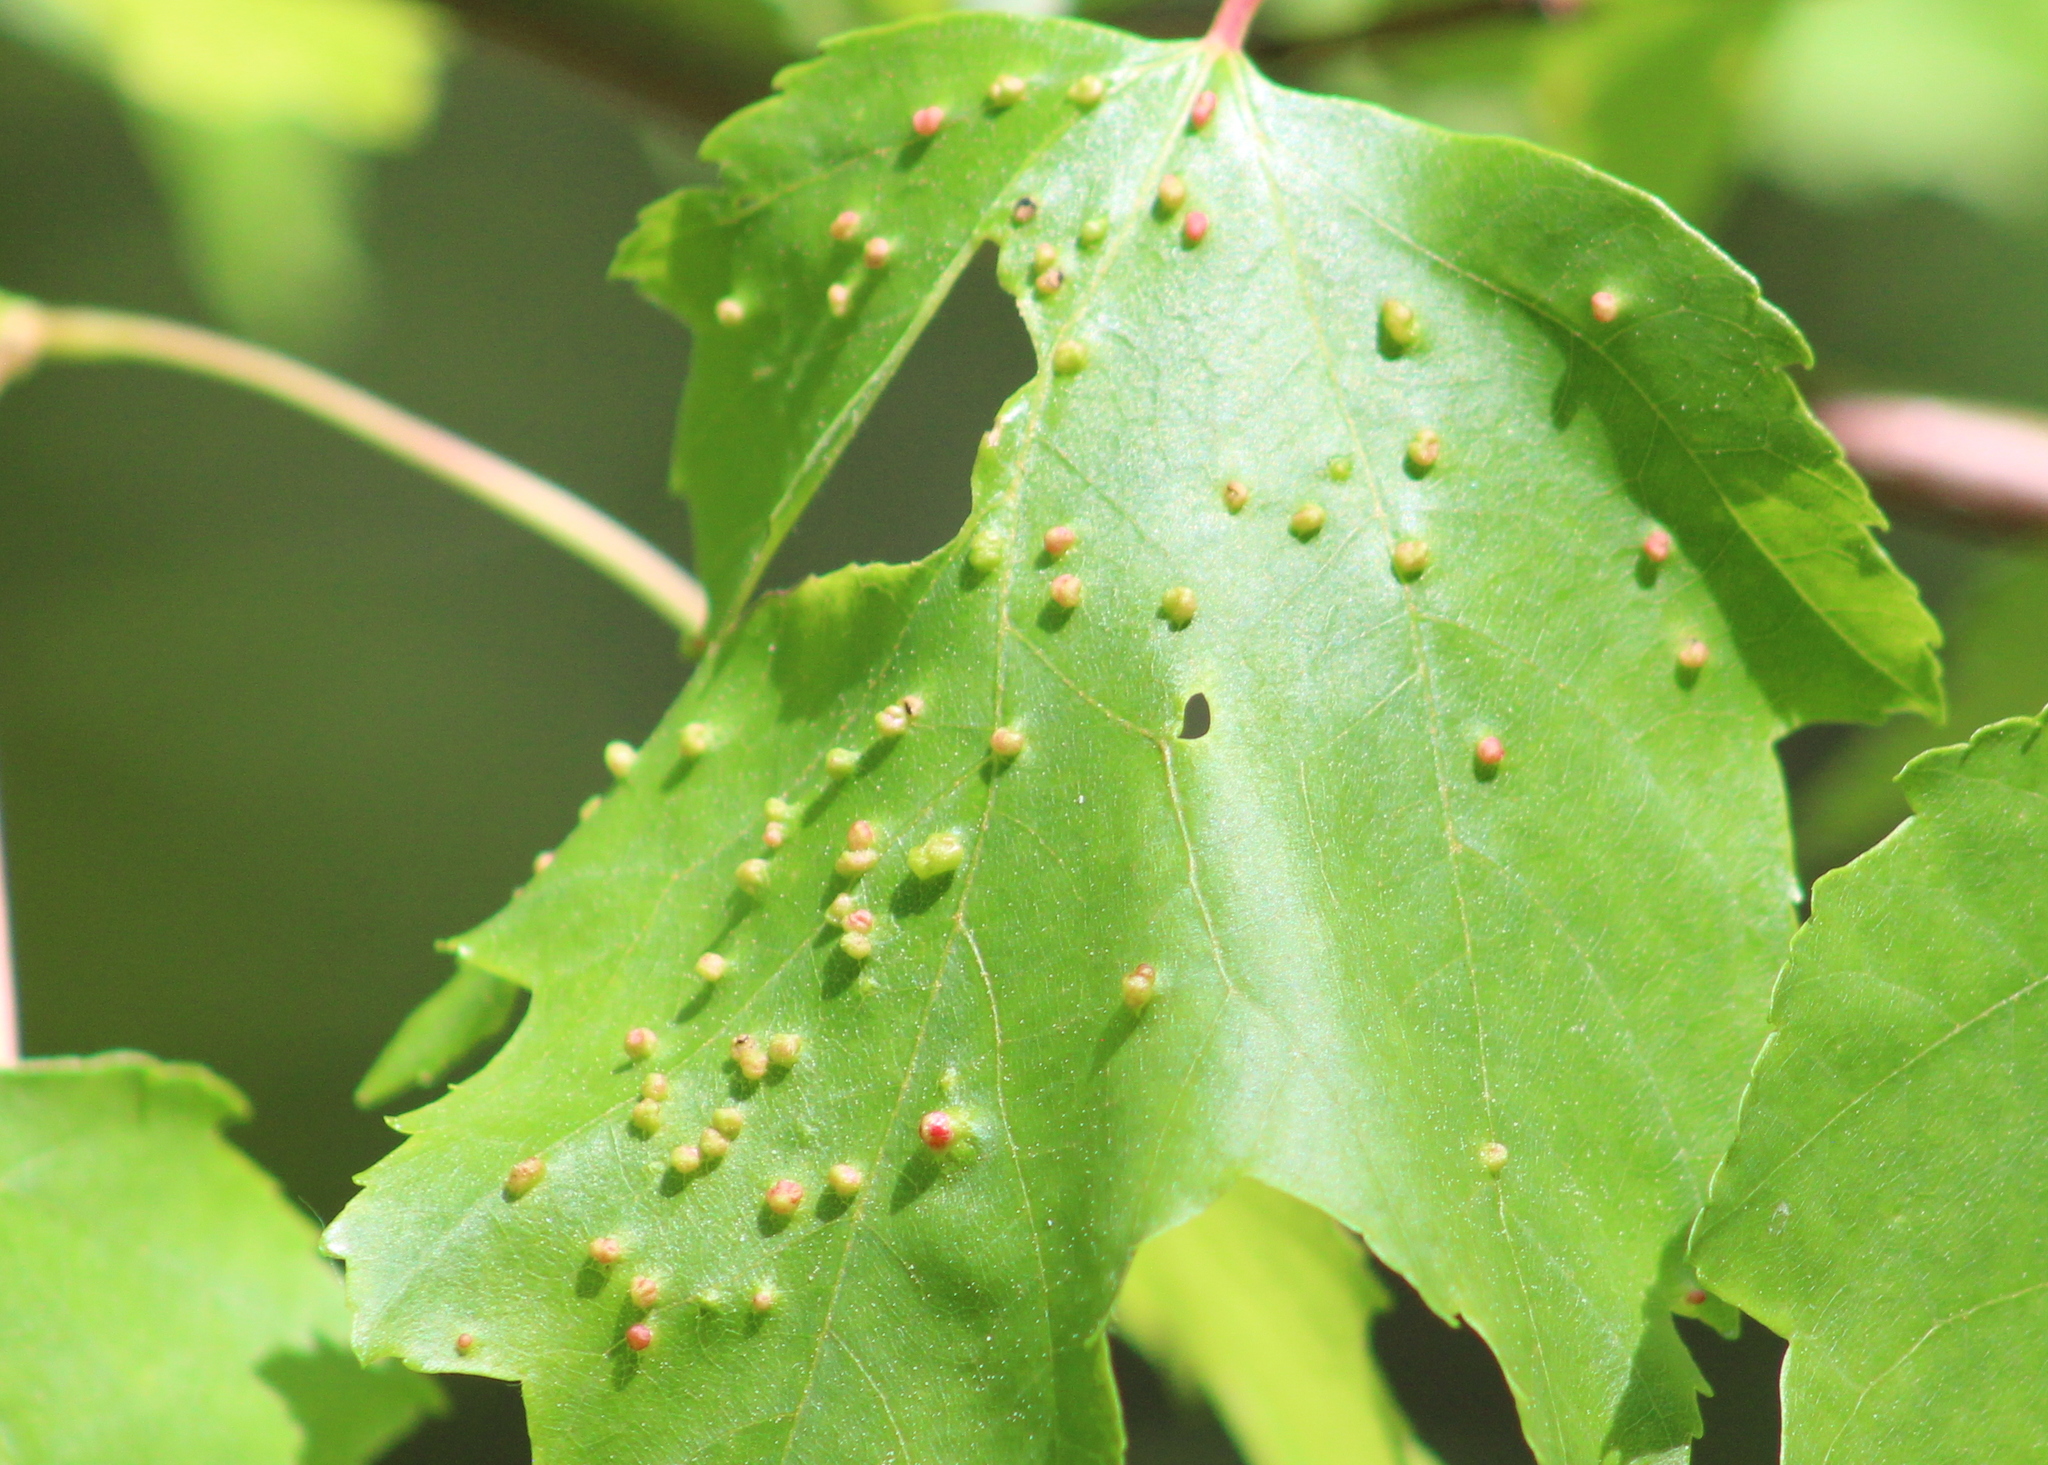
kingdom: Animalia
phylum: Arthropoda
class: Arachnida
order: Trombidiformes
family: Eriophyidae
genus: Vasates
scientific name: Vasates quadripedes
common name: Maple bladder gall mite
